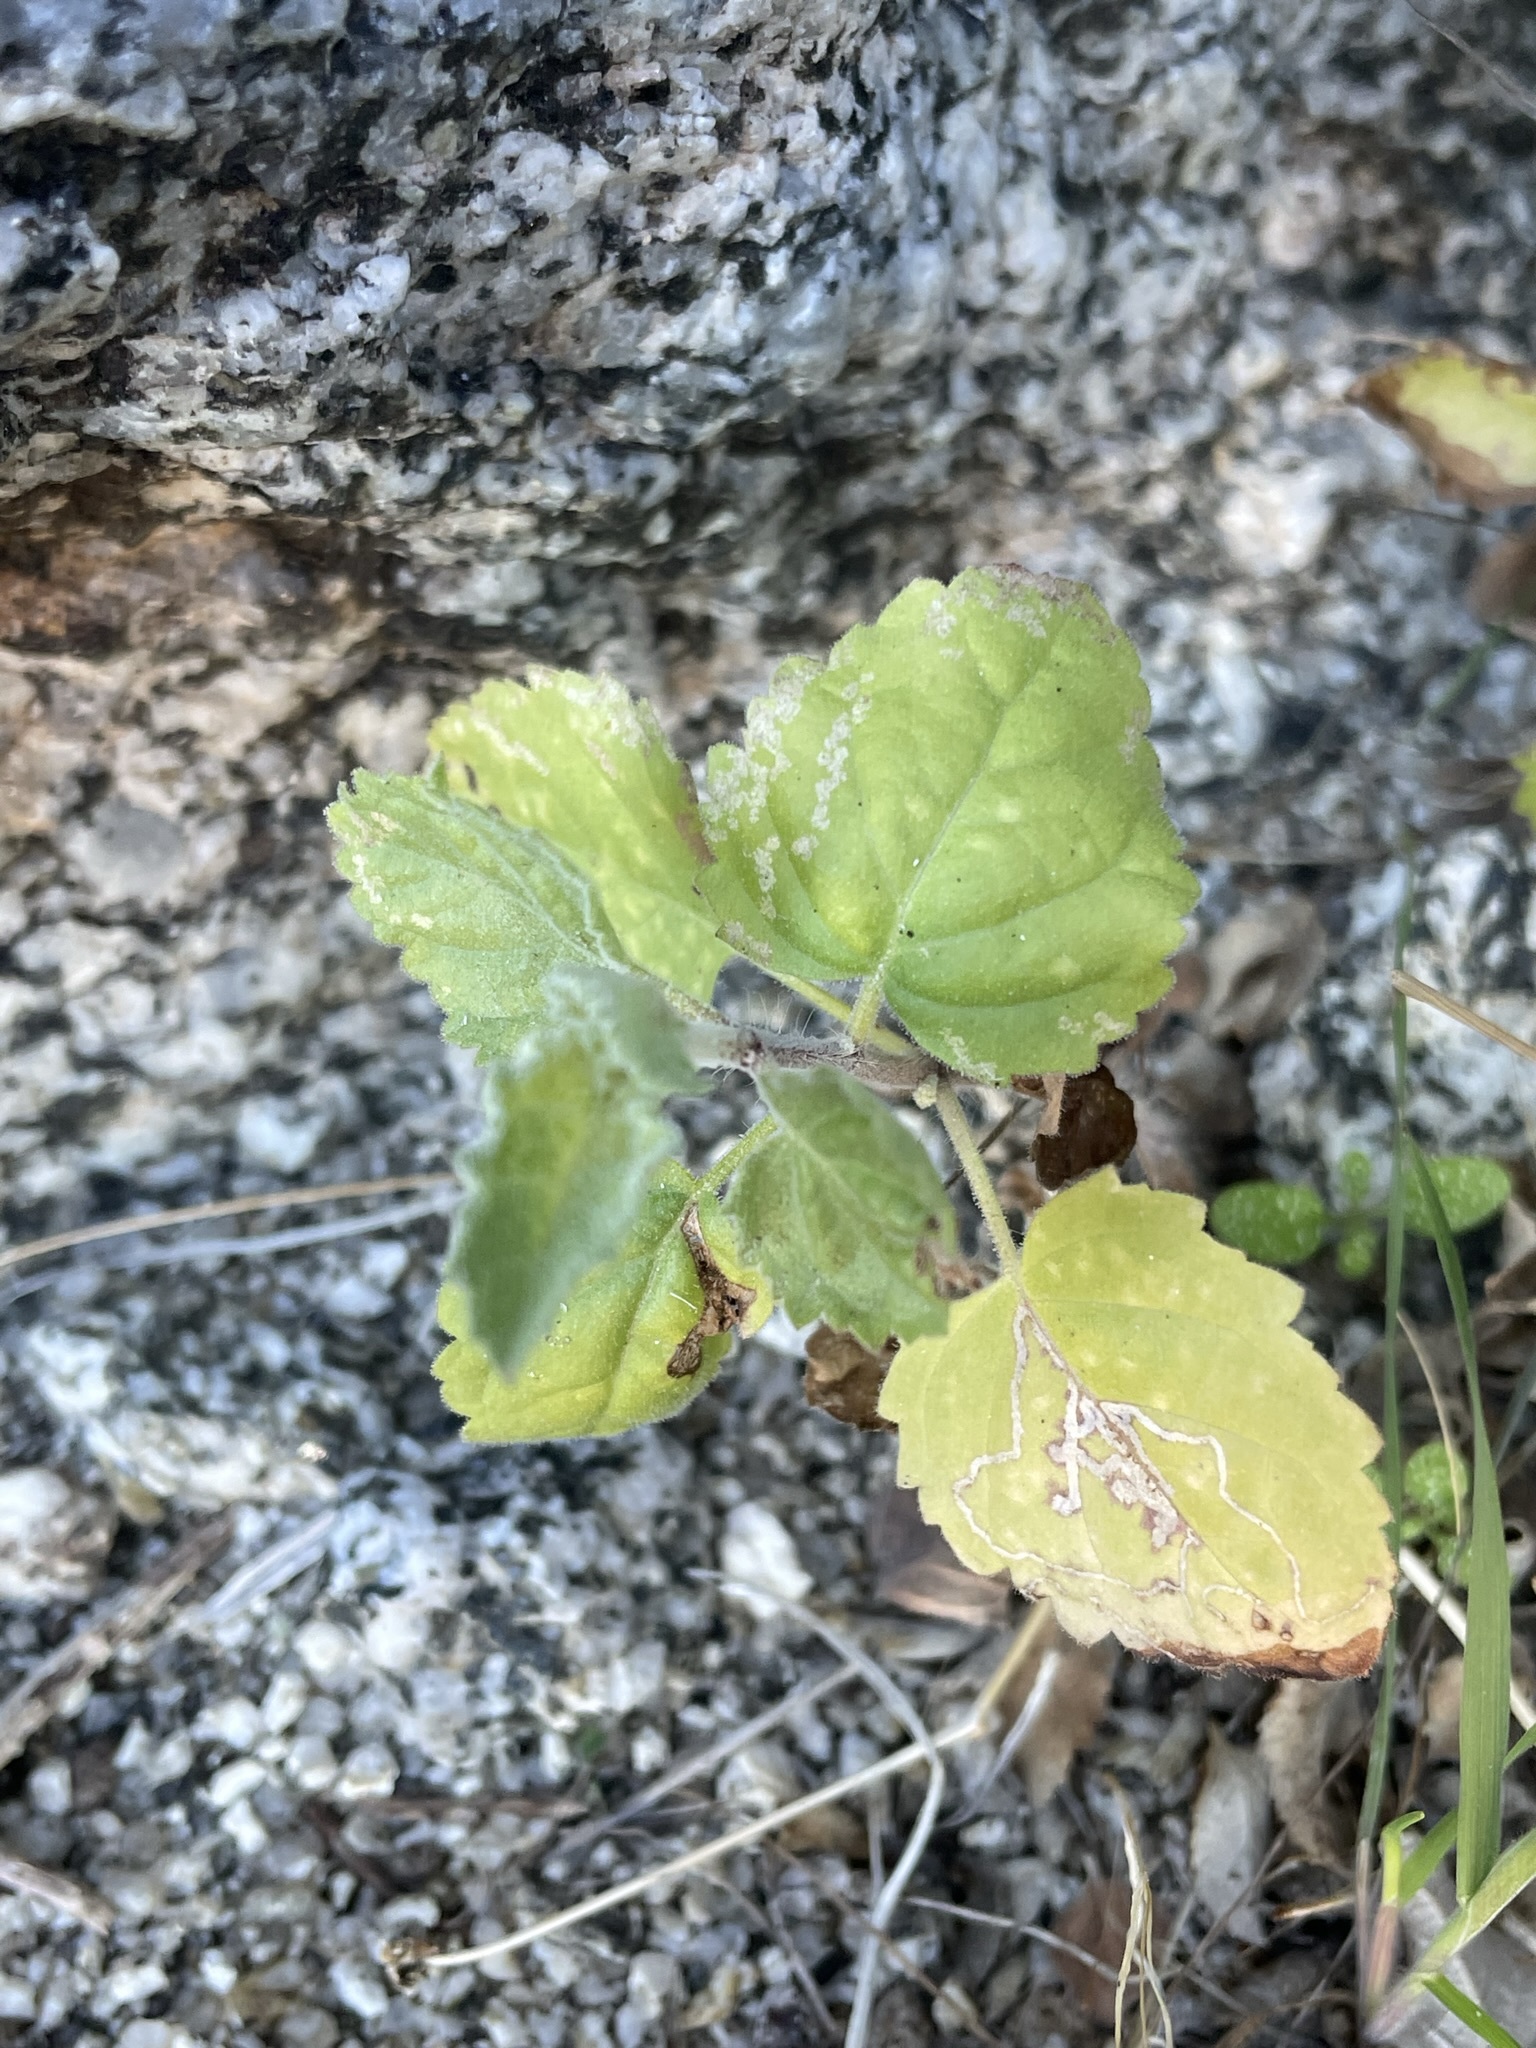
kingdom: Plantae
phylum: Tracheophyta
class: Magnoliopsida
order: Lamiales
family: Lamiaceae
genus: Condea
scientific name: Condea emoryi
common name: Chia
